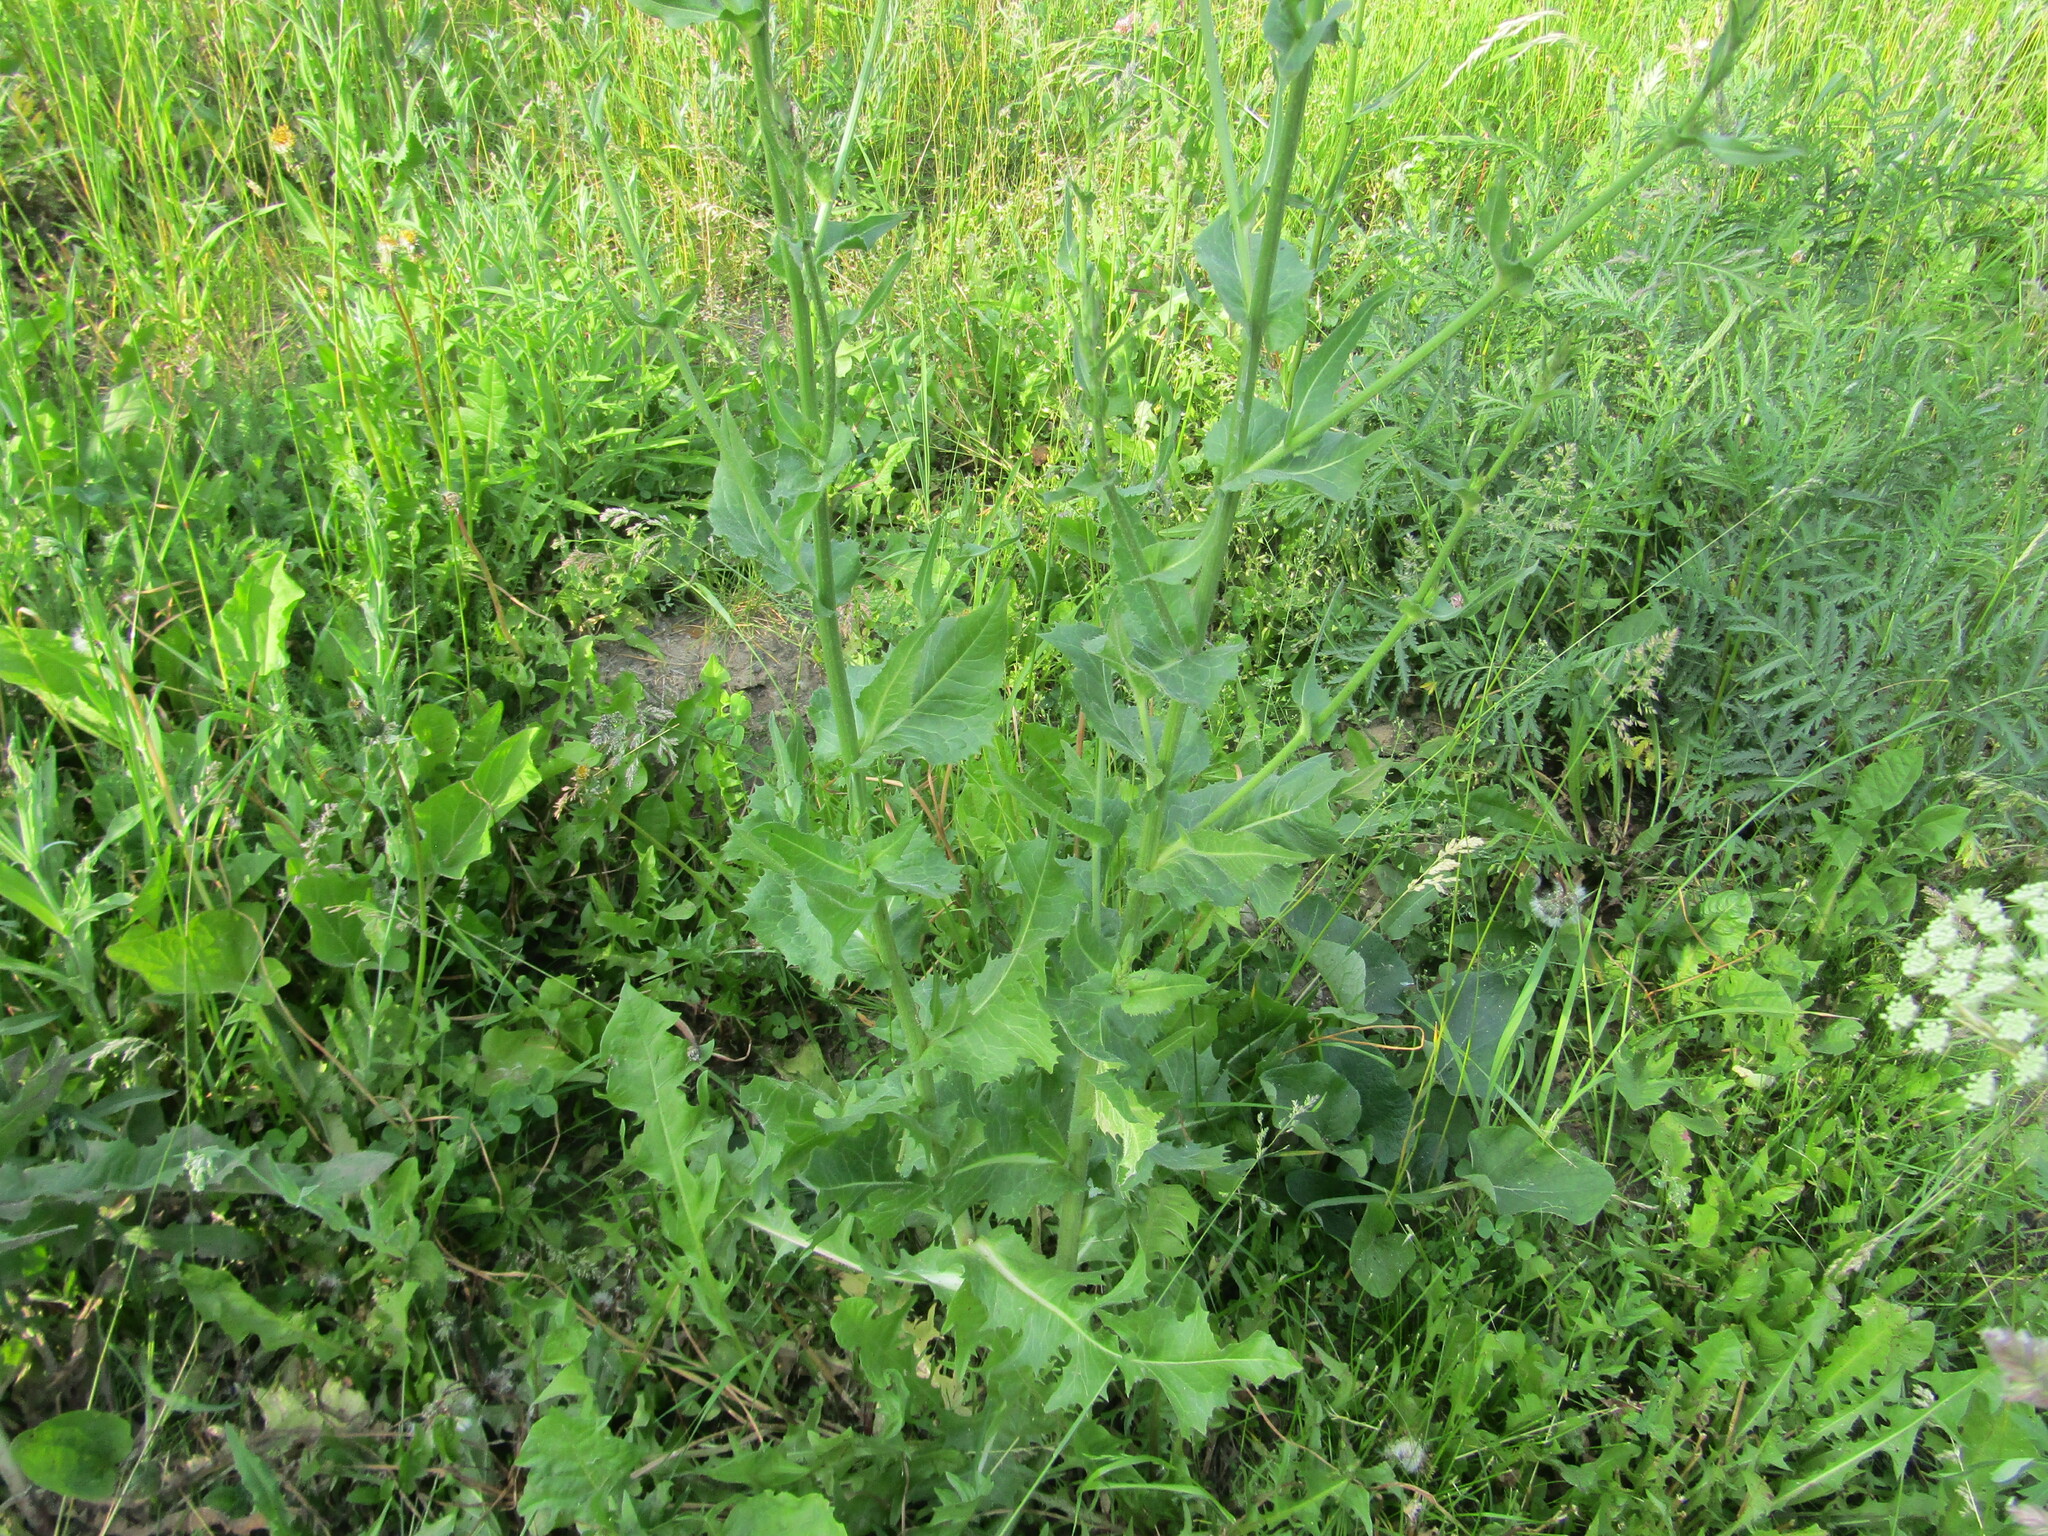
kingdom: Plantae
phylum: Tracheophyta
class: Magnoliopsida
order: Asterales
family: Asteraceae
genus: Cichorium
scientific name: Cichorium intybus
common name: Chicory
